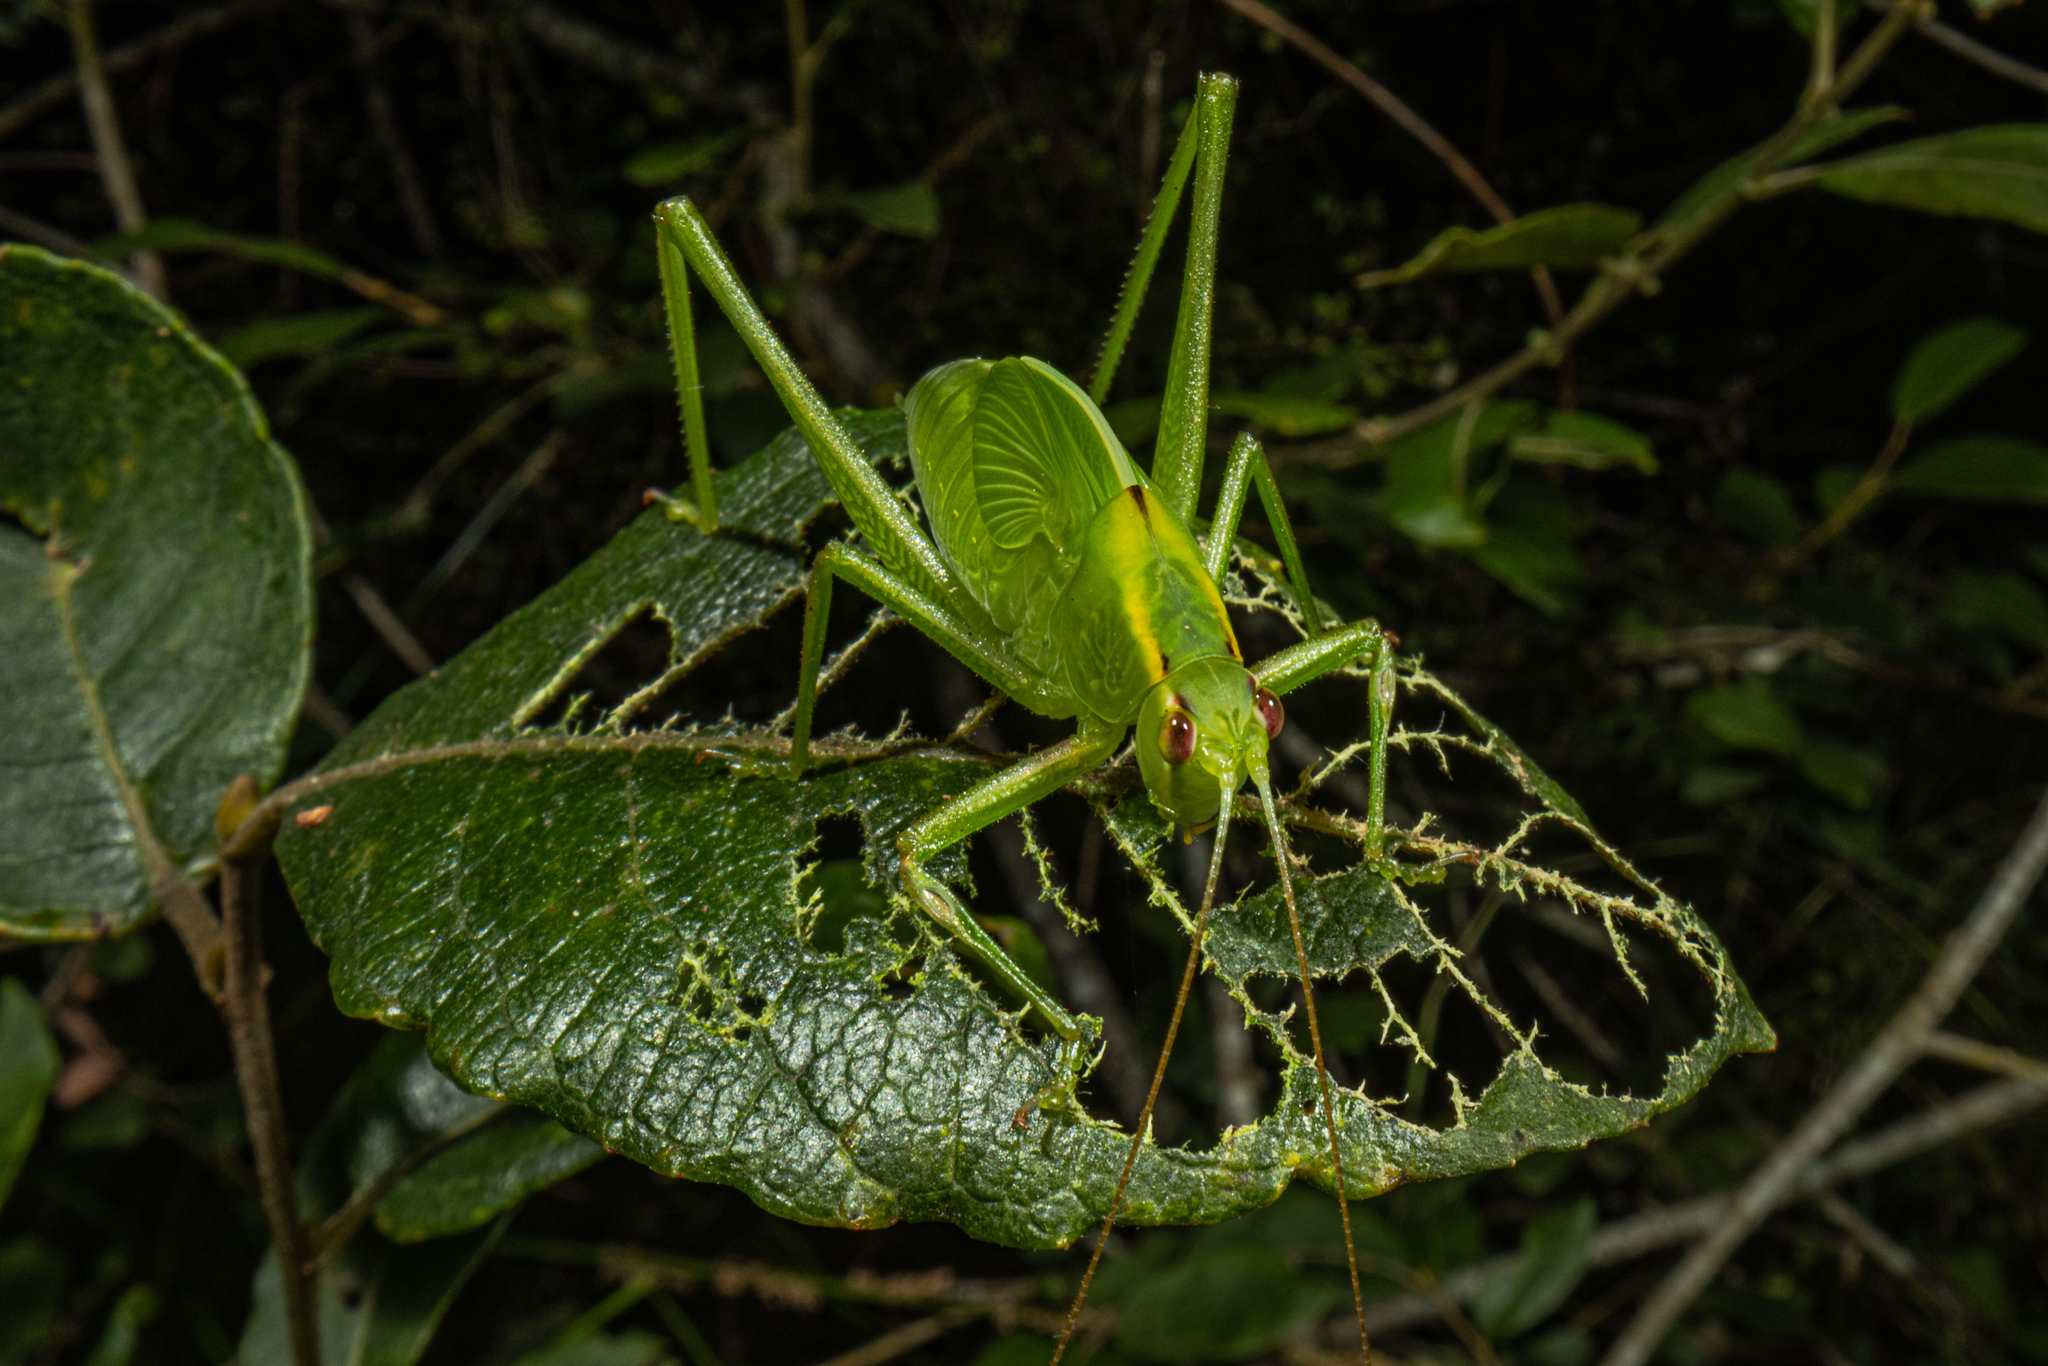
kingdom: Animalia
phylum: Arthropoda
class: Insecta
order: Orthoptera
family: Tettigoniidae
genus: Caedicia
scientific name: Caedicia simplex
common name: Common garden katydid
